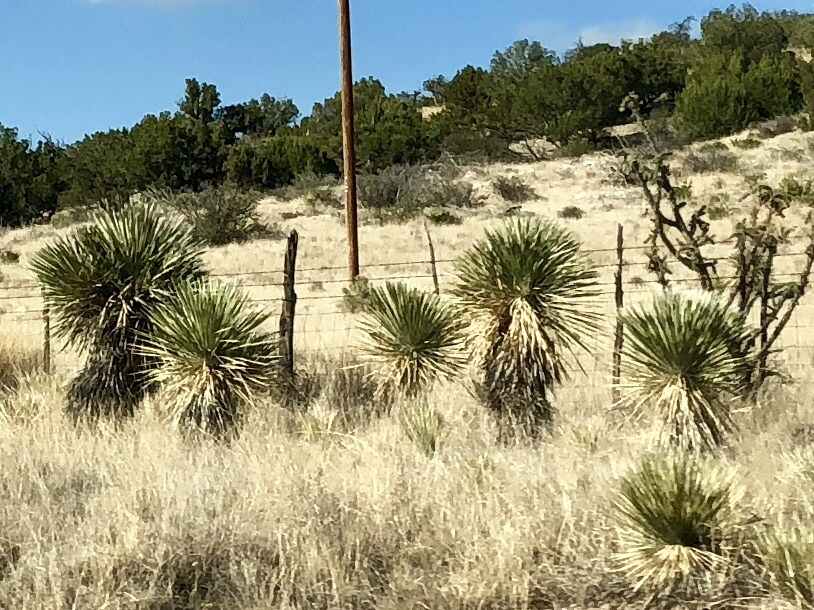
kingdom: Plantae
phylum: Tracheophyta
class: Liliopsida
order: Asparagales
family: Asparagaceae
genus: Yucca
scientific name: Yucca elata
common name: Palmella
